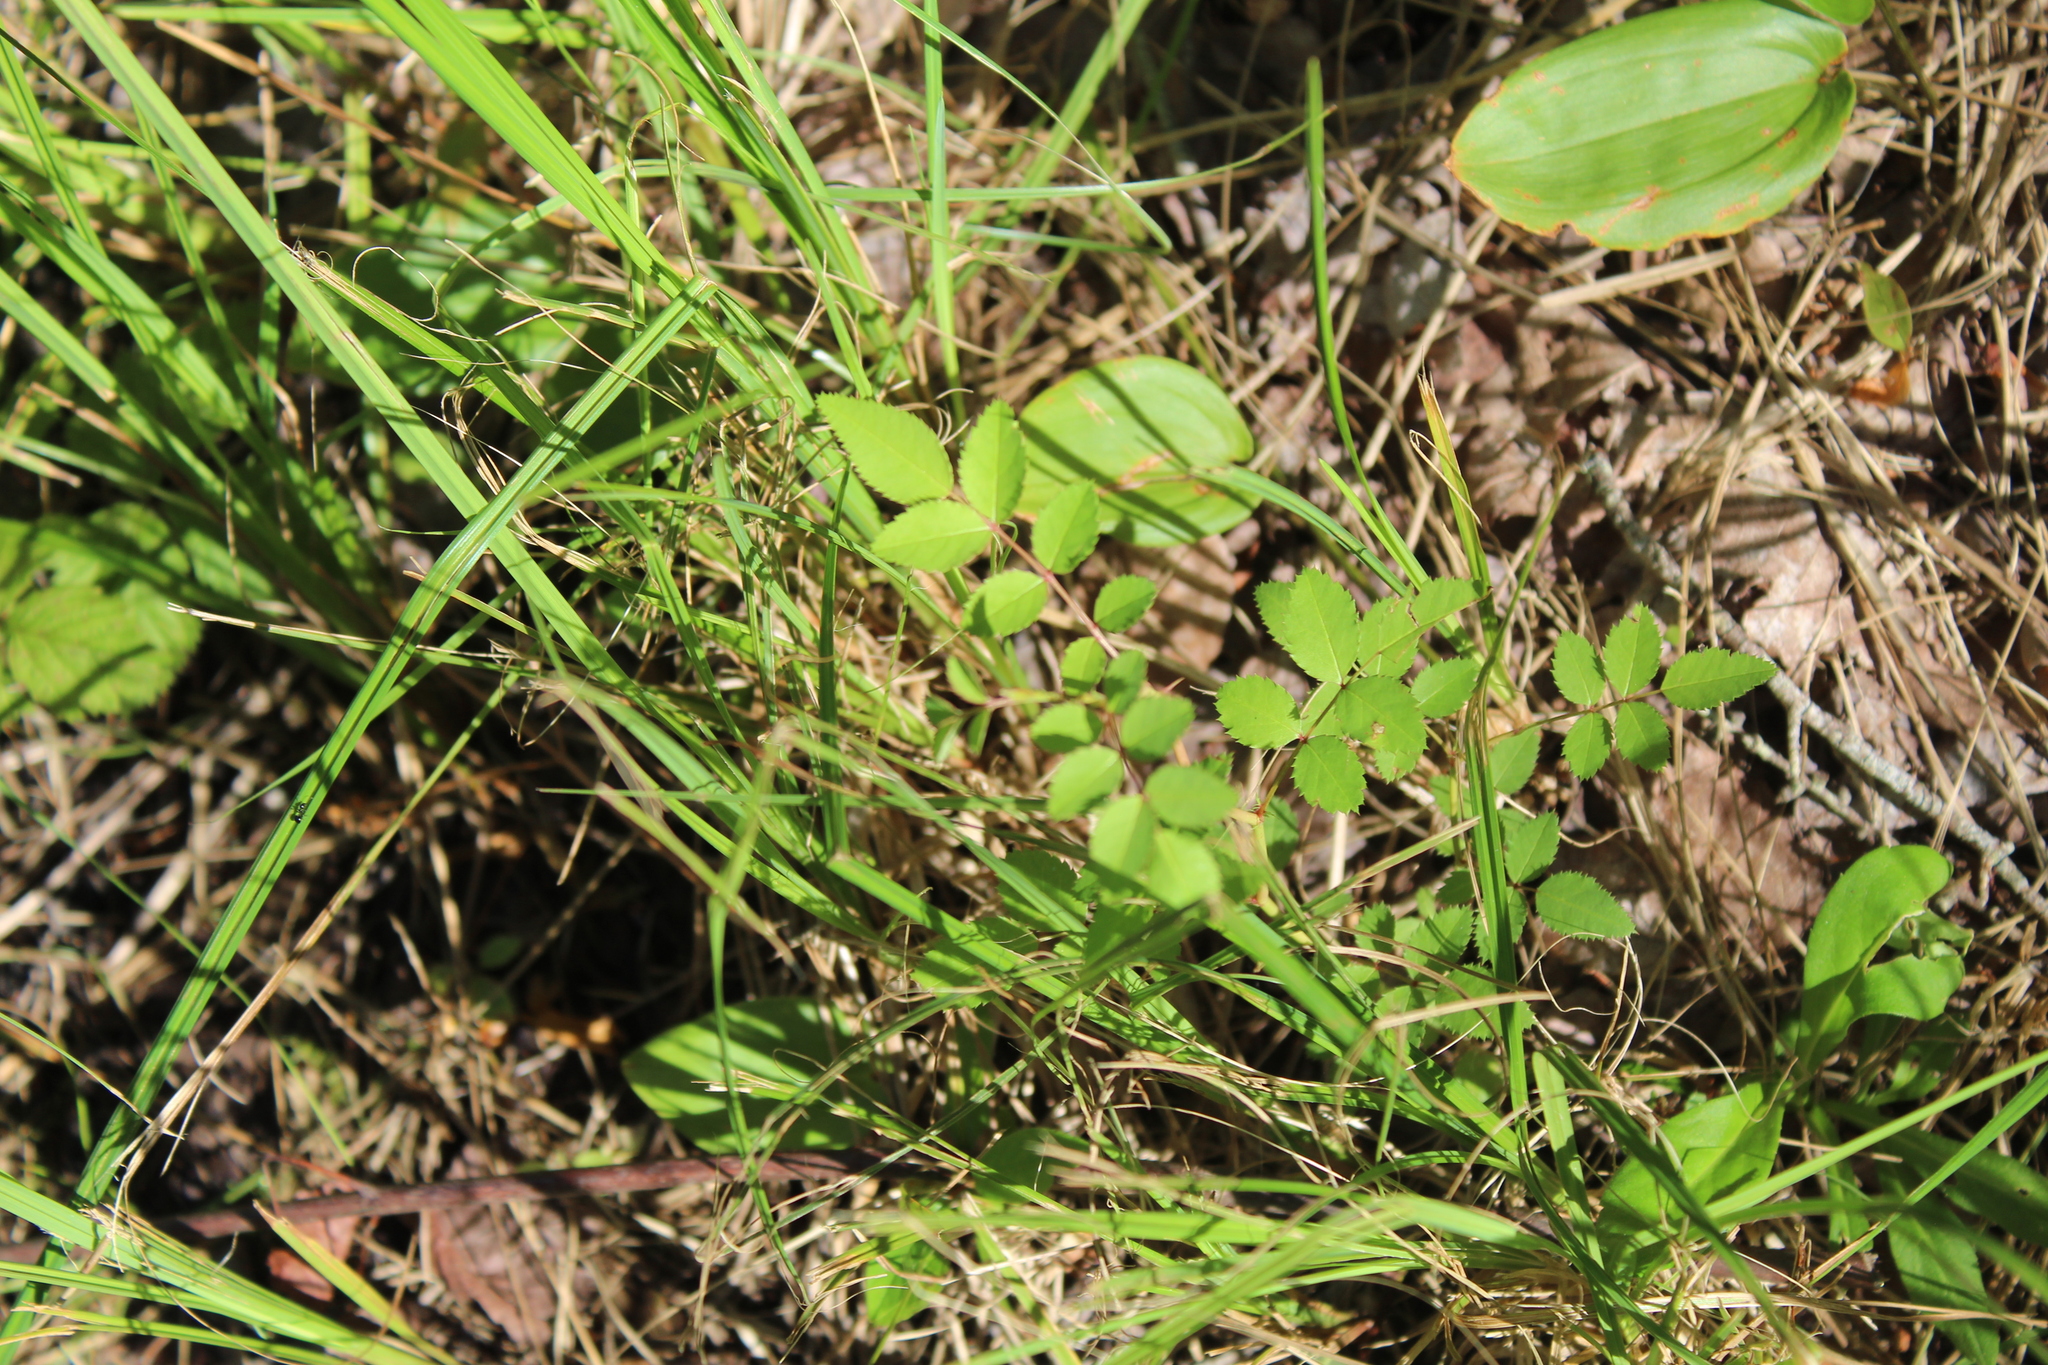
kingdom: Plantae
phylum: Tracheophyta
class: Magnoliopsida
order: Rosales
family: Rosaceae
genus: Rosa
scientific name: Rosa multiflora
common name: Multiflora rose
